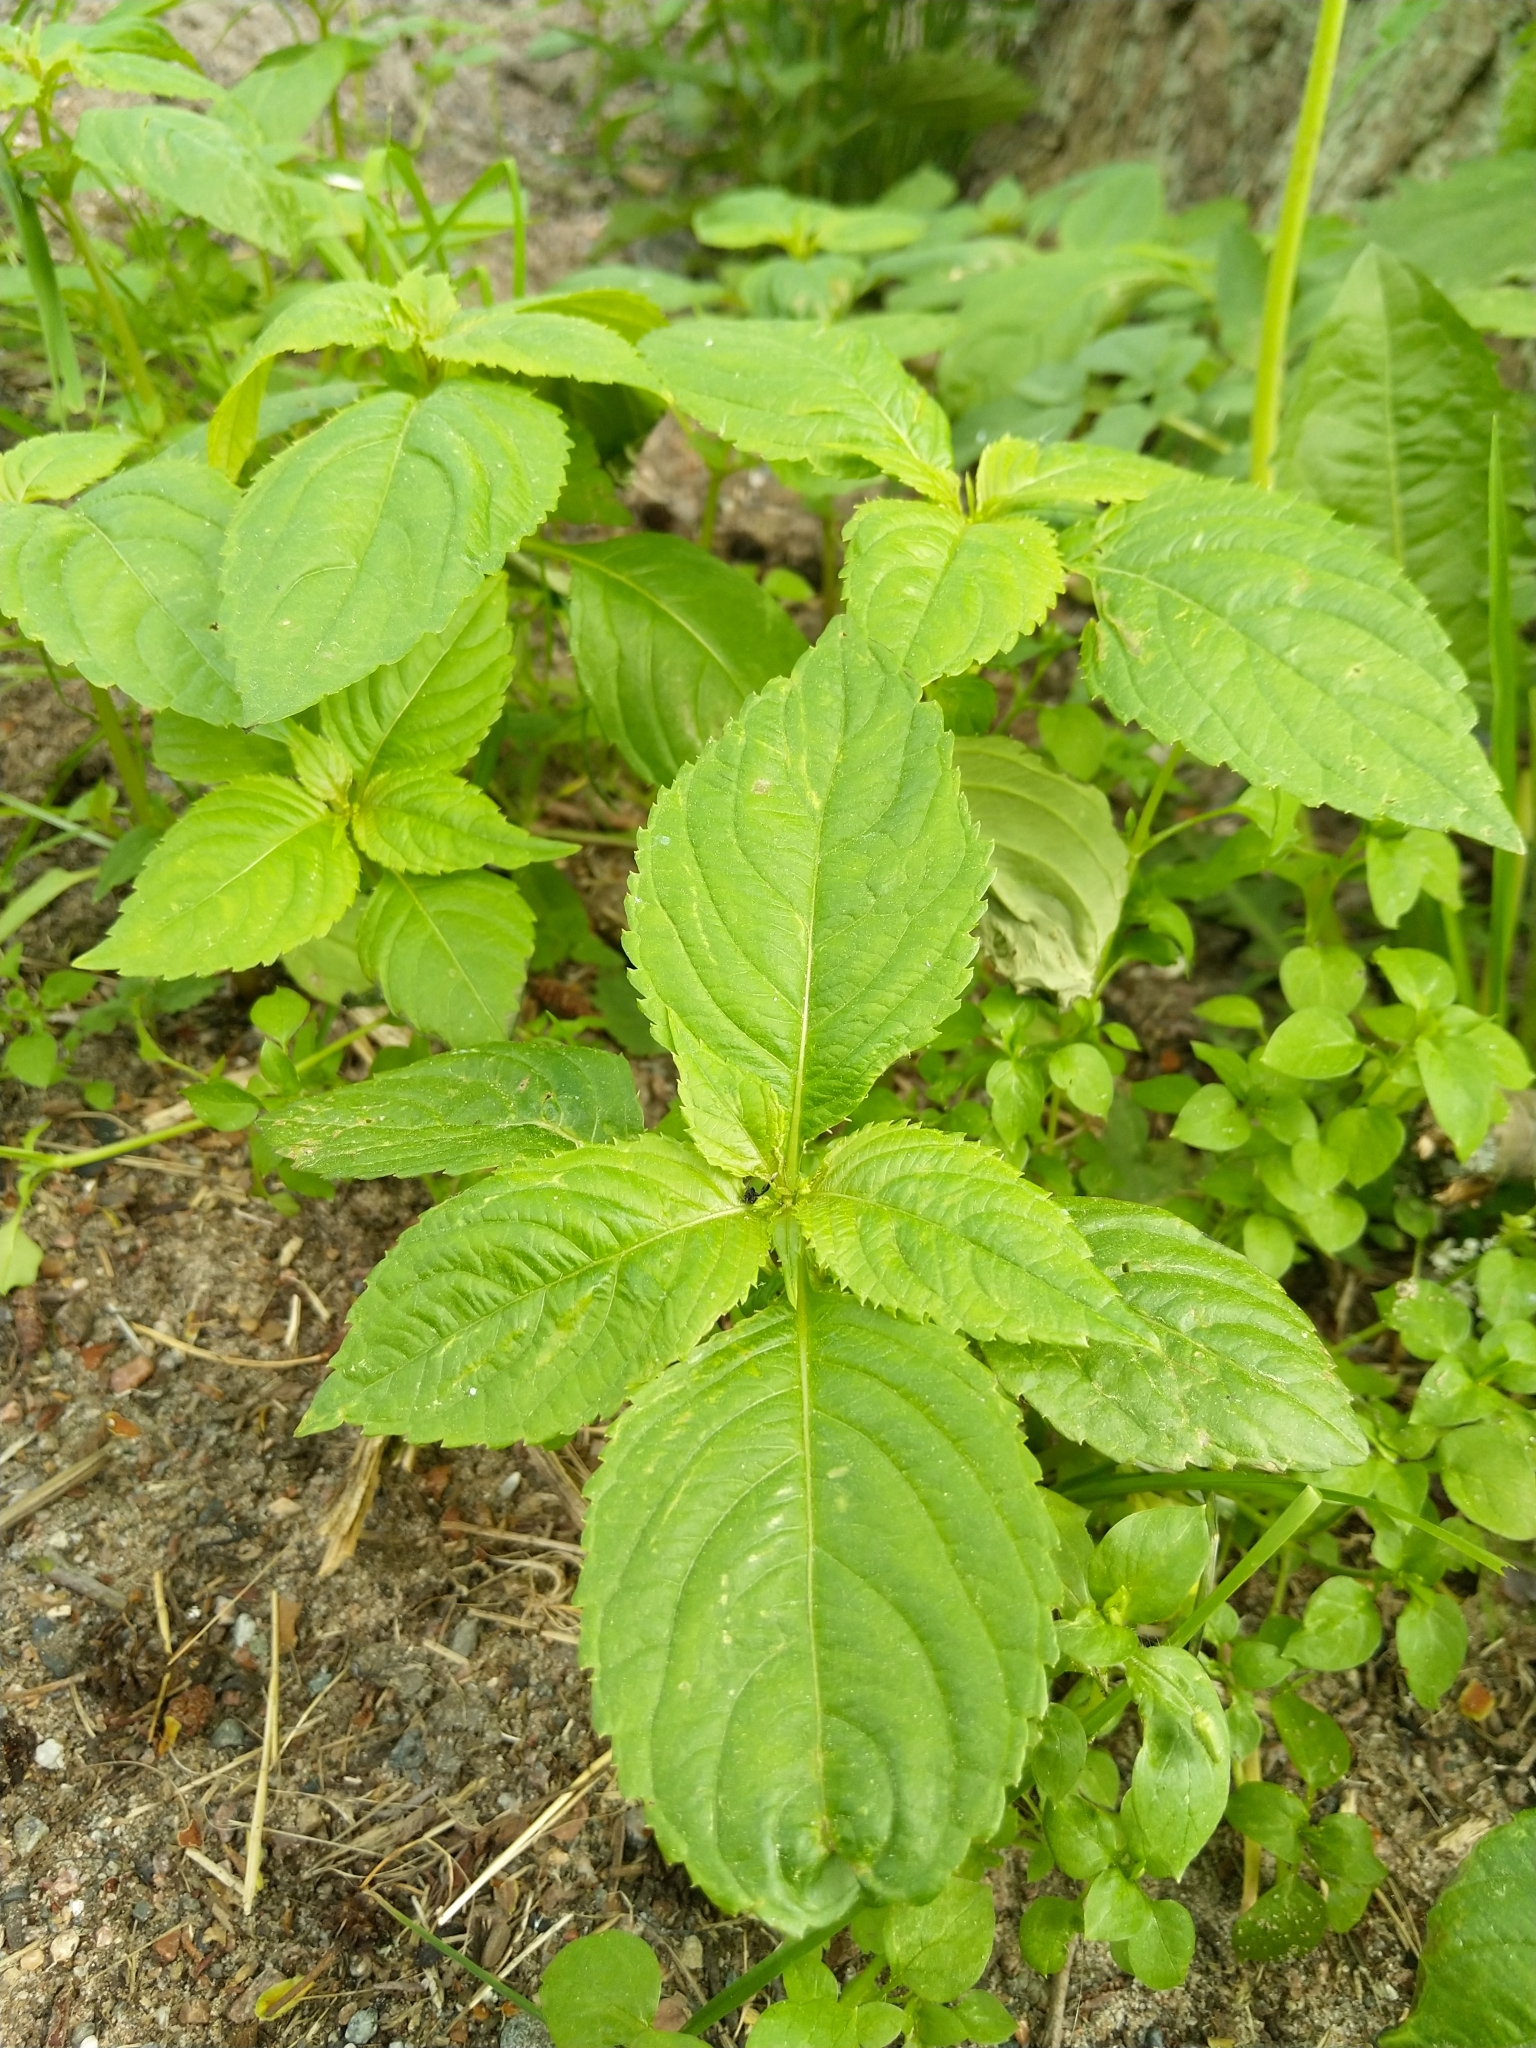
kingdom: Plantae
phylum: Tracheophyta
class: Magnoliopsida
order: Ericales
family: Balsaminaceae
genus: Impatiens
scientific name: Impatiens parviflora
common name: Small balsam
